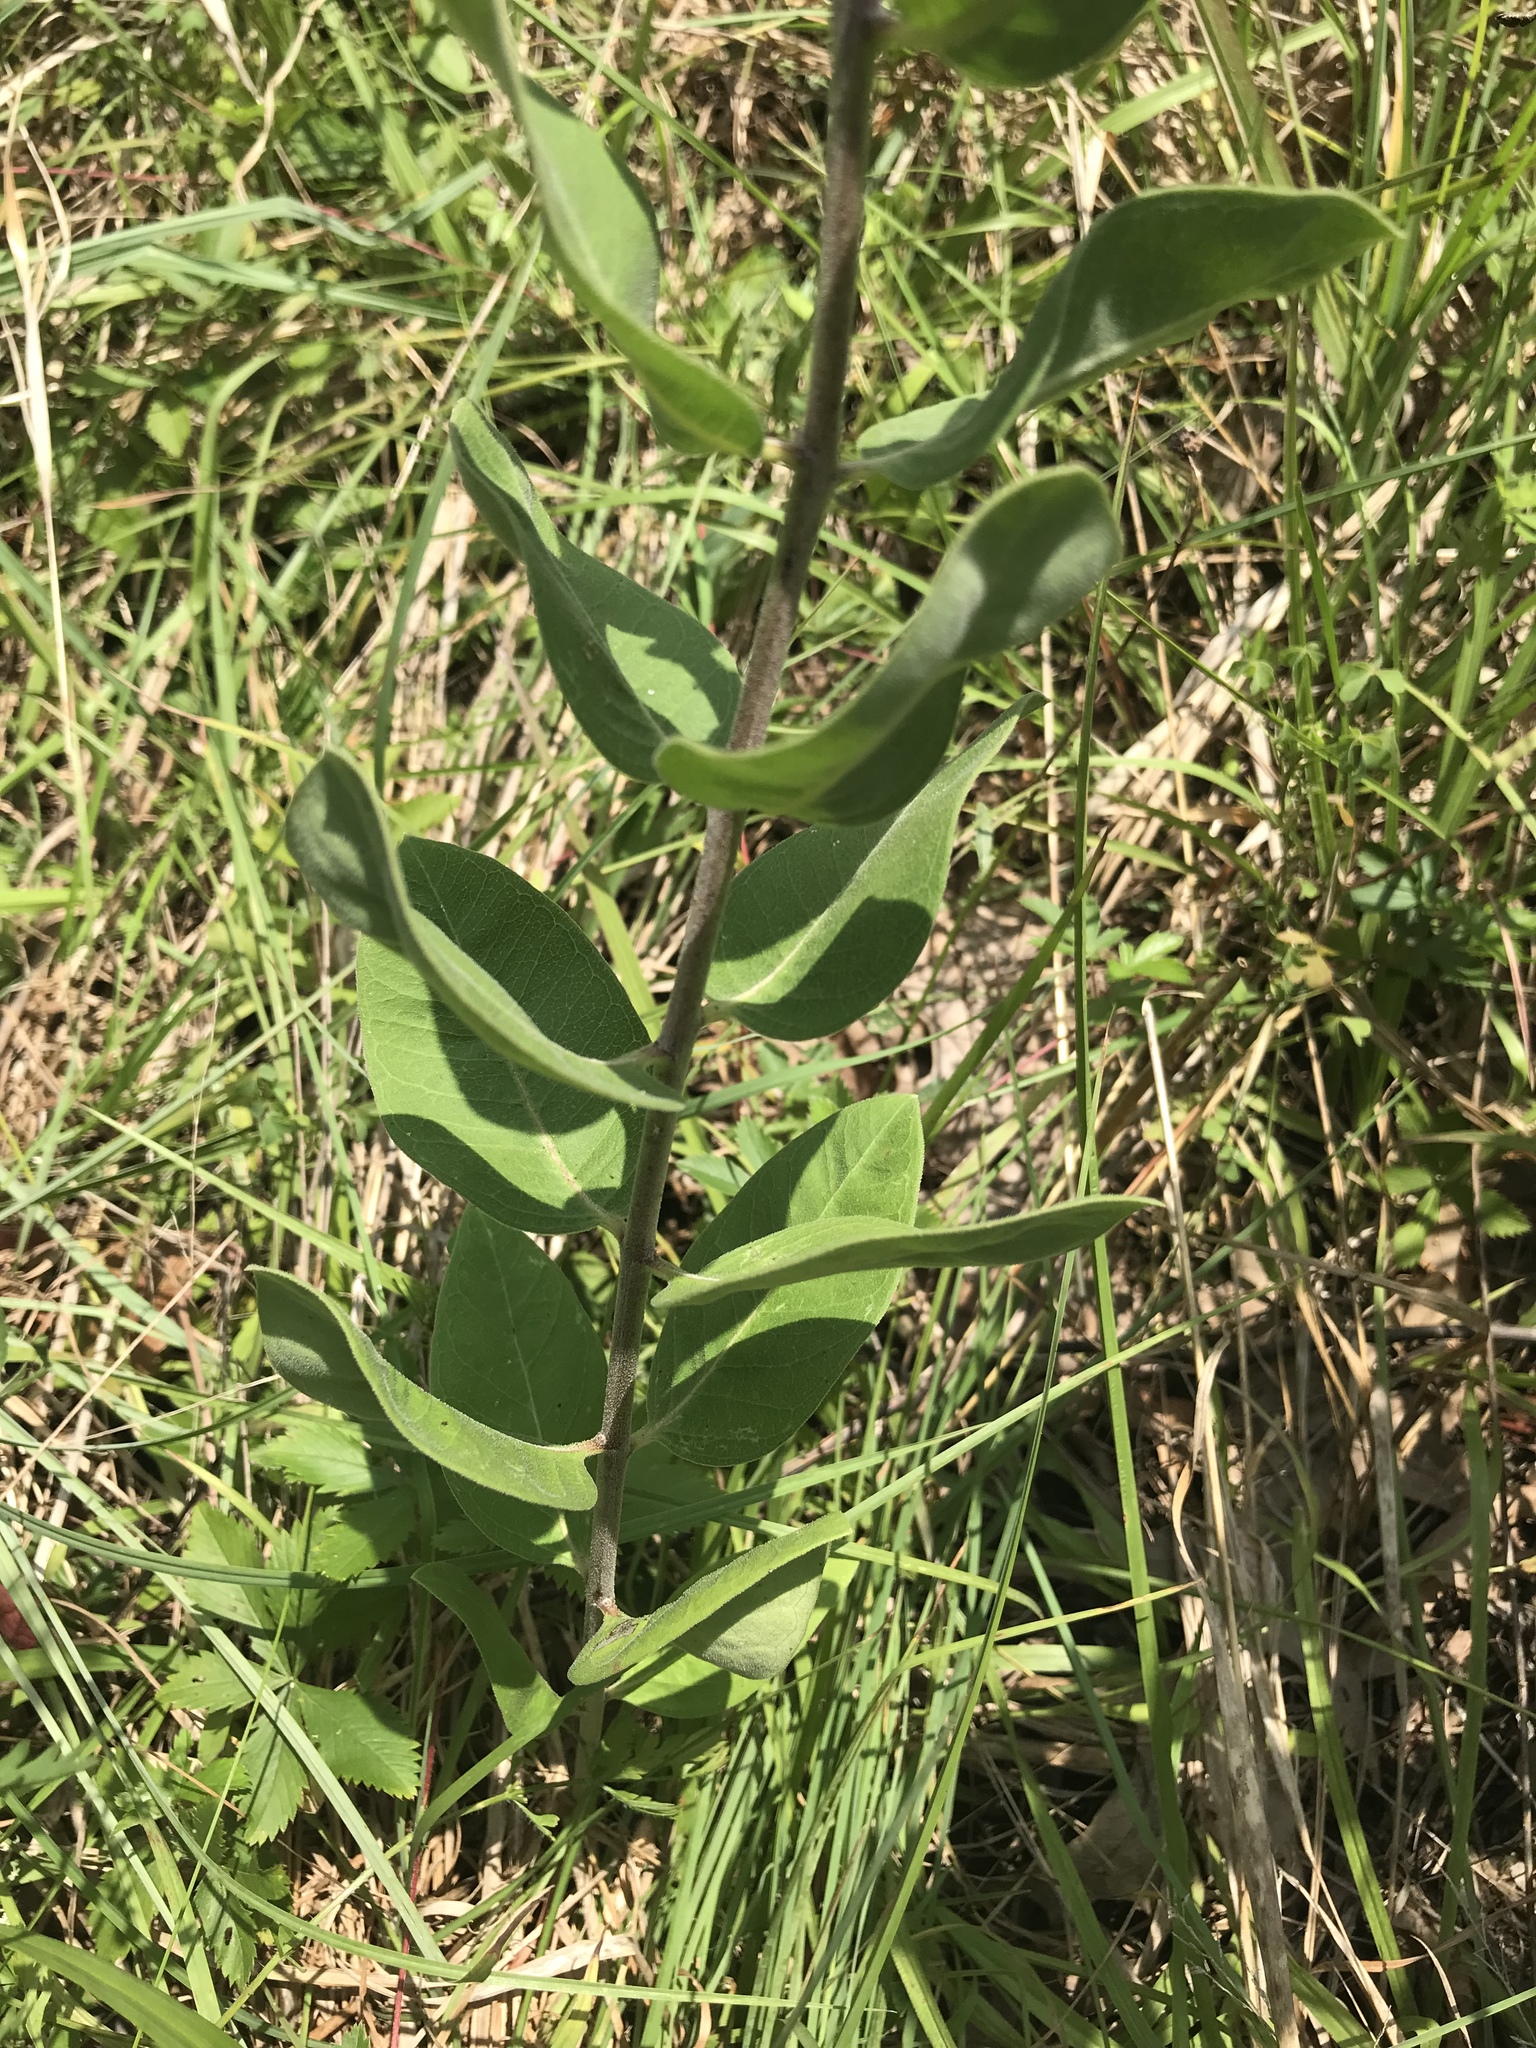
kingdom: Plantae
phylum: Tracheophyta
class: Magnoliopsida
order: Gentianales
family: Apocynaceae
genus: Asclepias
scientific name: Asclepias viridiflora
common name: Green comet milkweed
